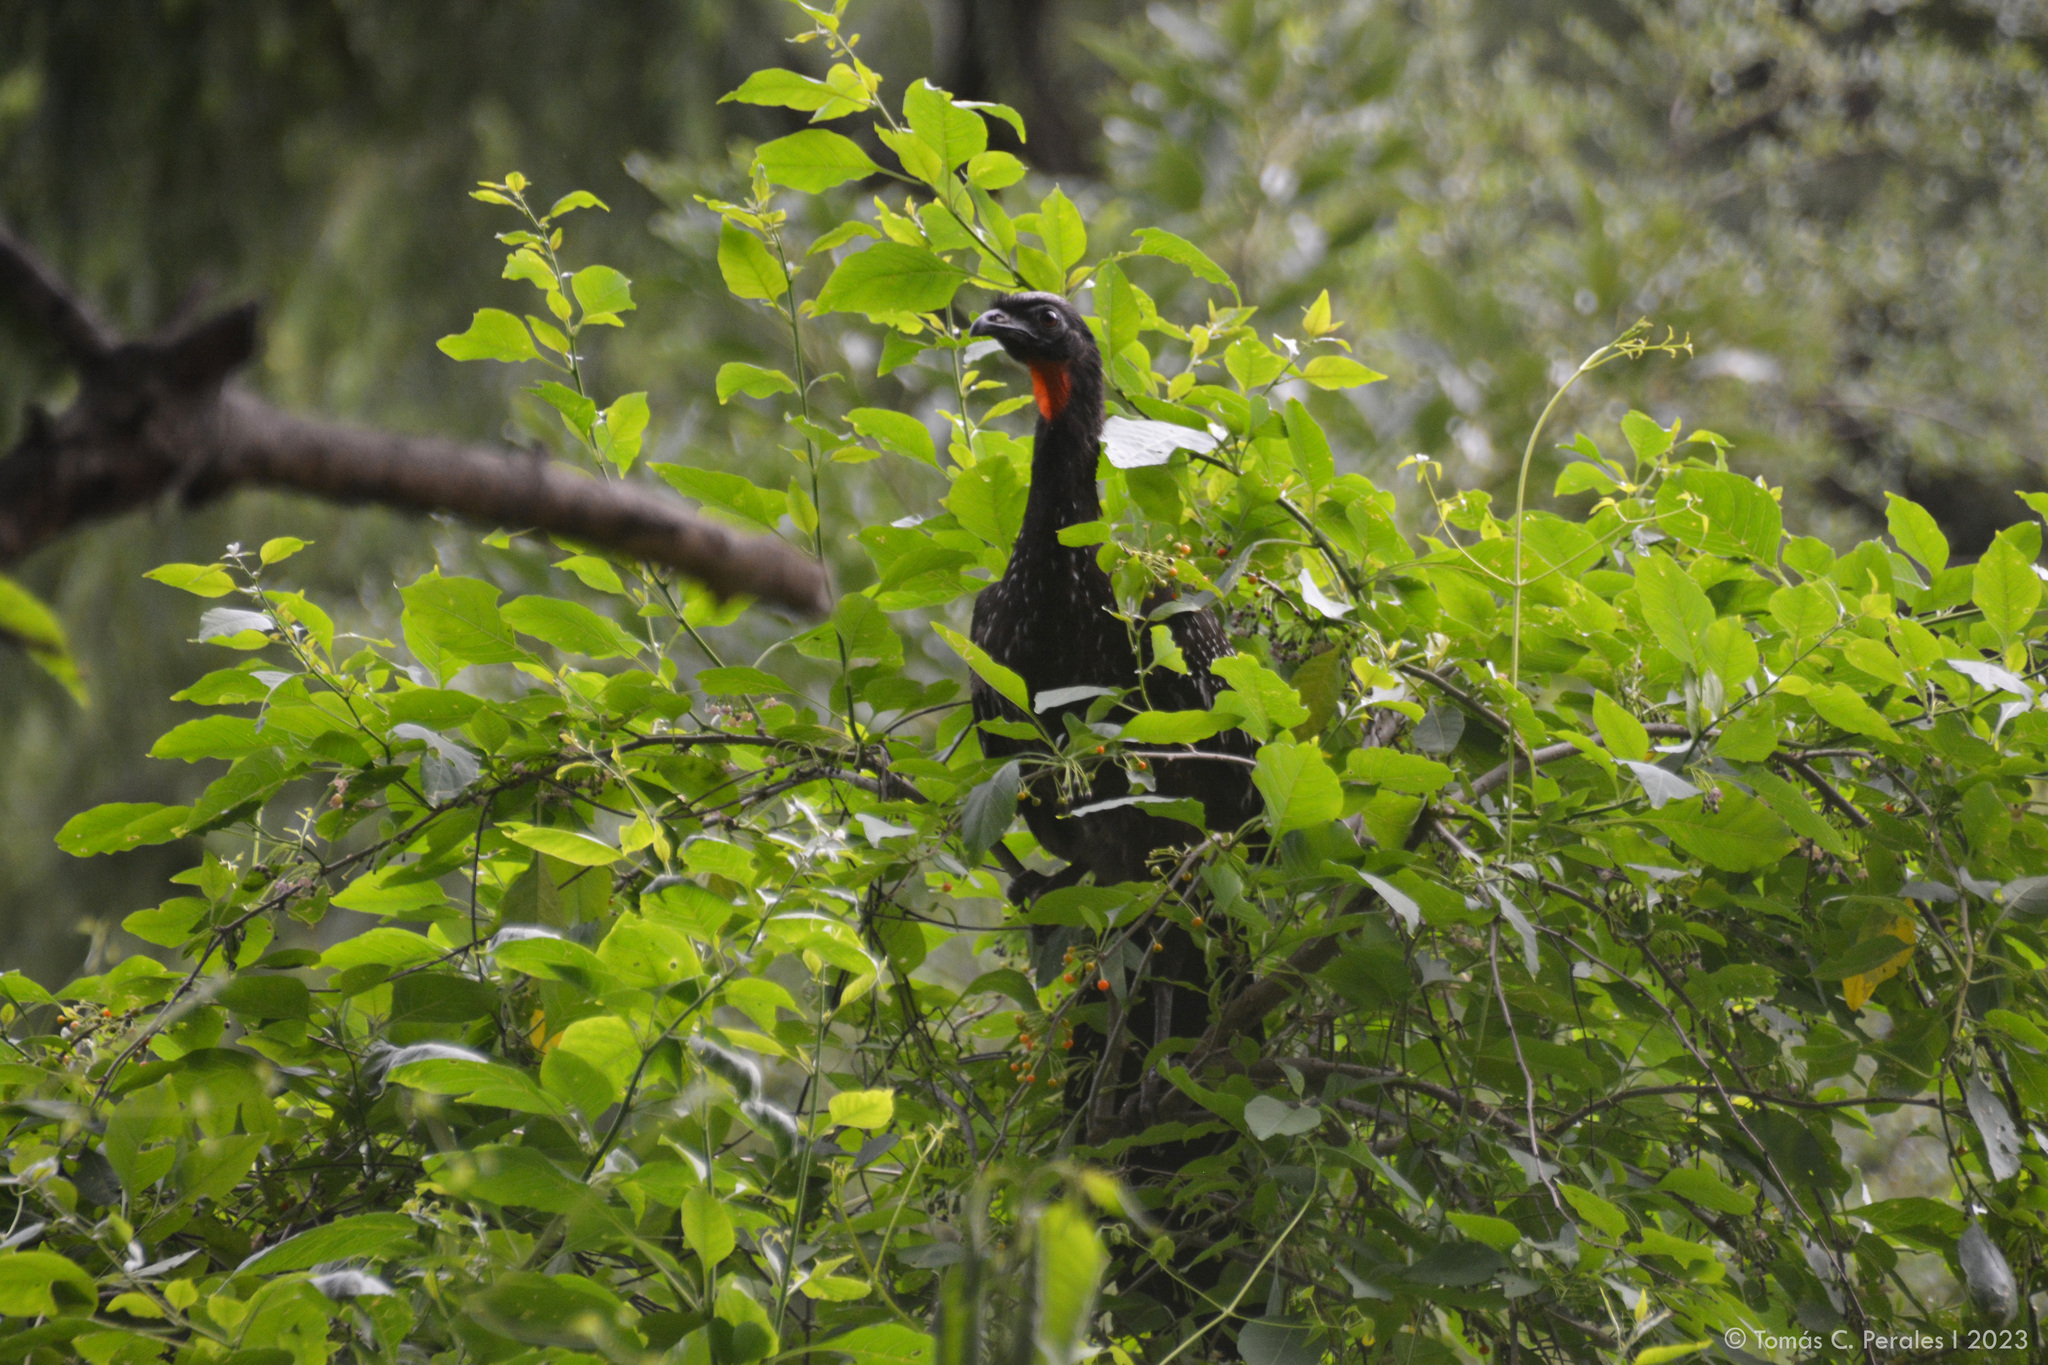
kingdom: Animalia
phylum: Chordata
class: Aves
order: Galliformes
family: Cracidae
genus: Penelope
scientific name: Penelope bridgesi
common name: Yungas guan
